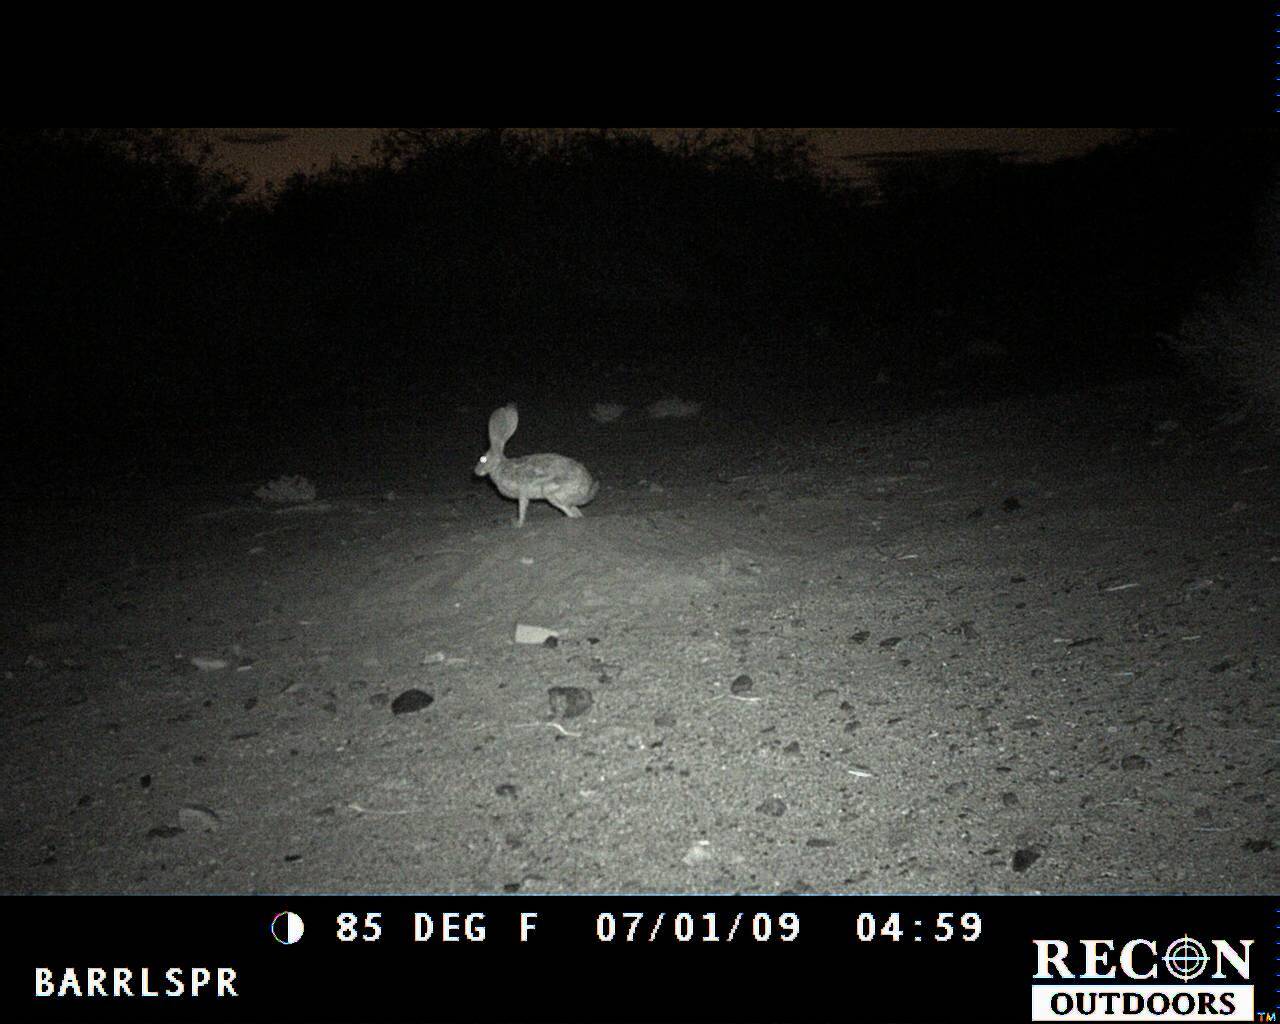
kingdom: Animalia
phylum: Chordata
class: Mammalia
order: Lagomorpha
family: Leporidae
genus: Lepus
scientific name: Lepus californicus
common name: Black-tailed jackrabbit
